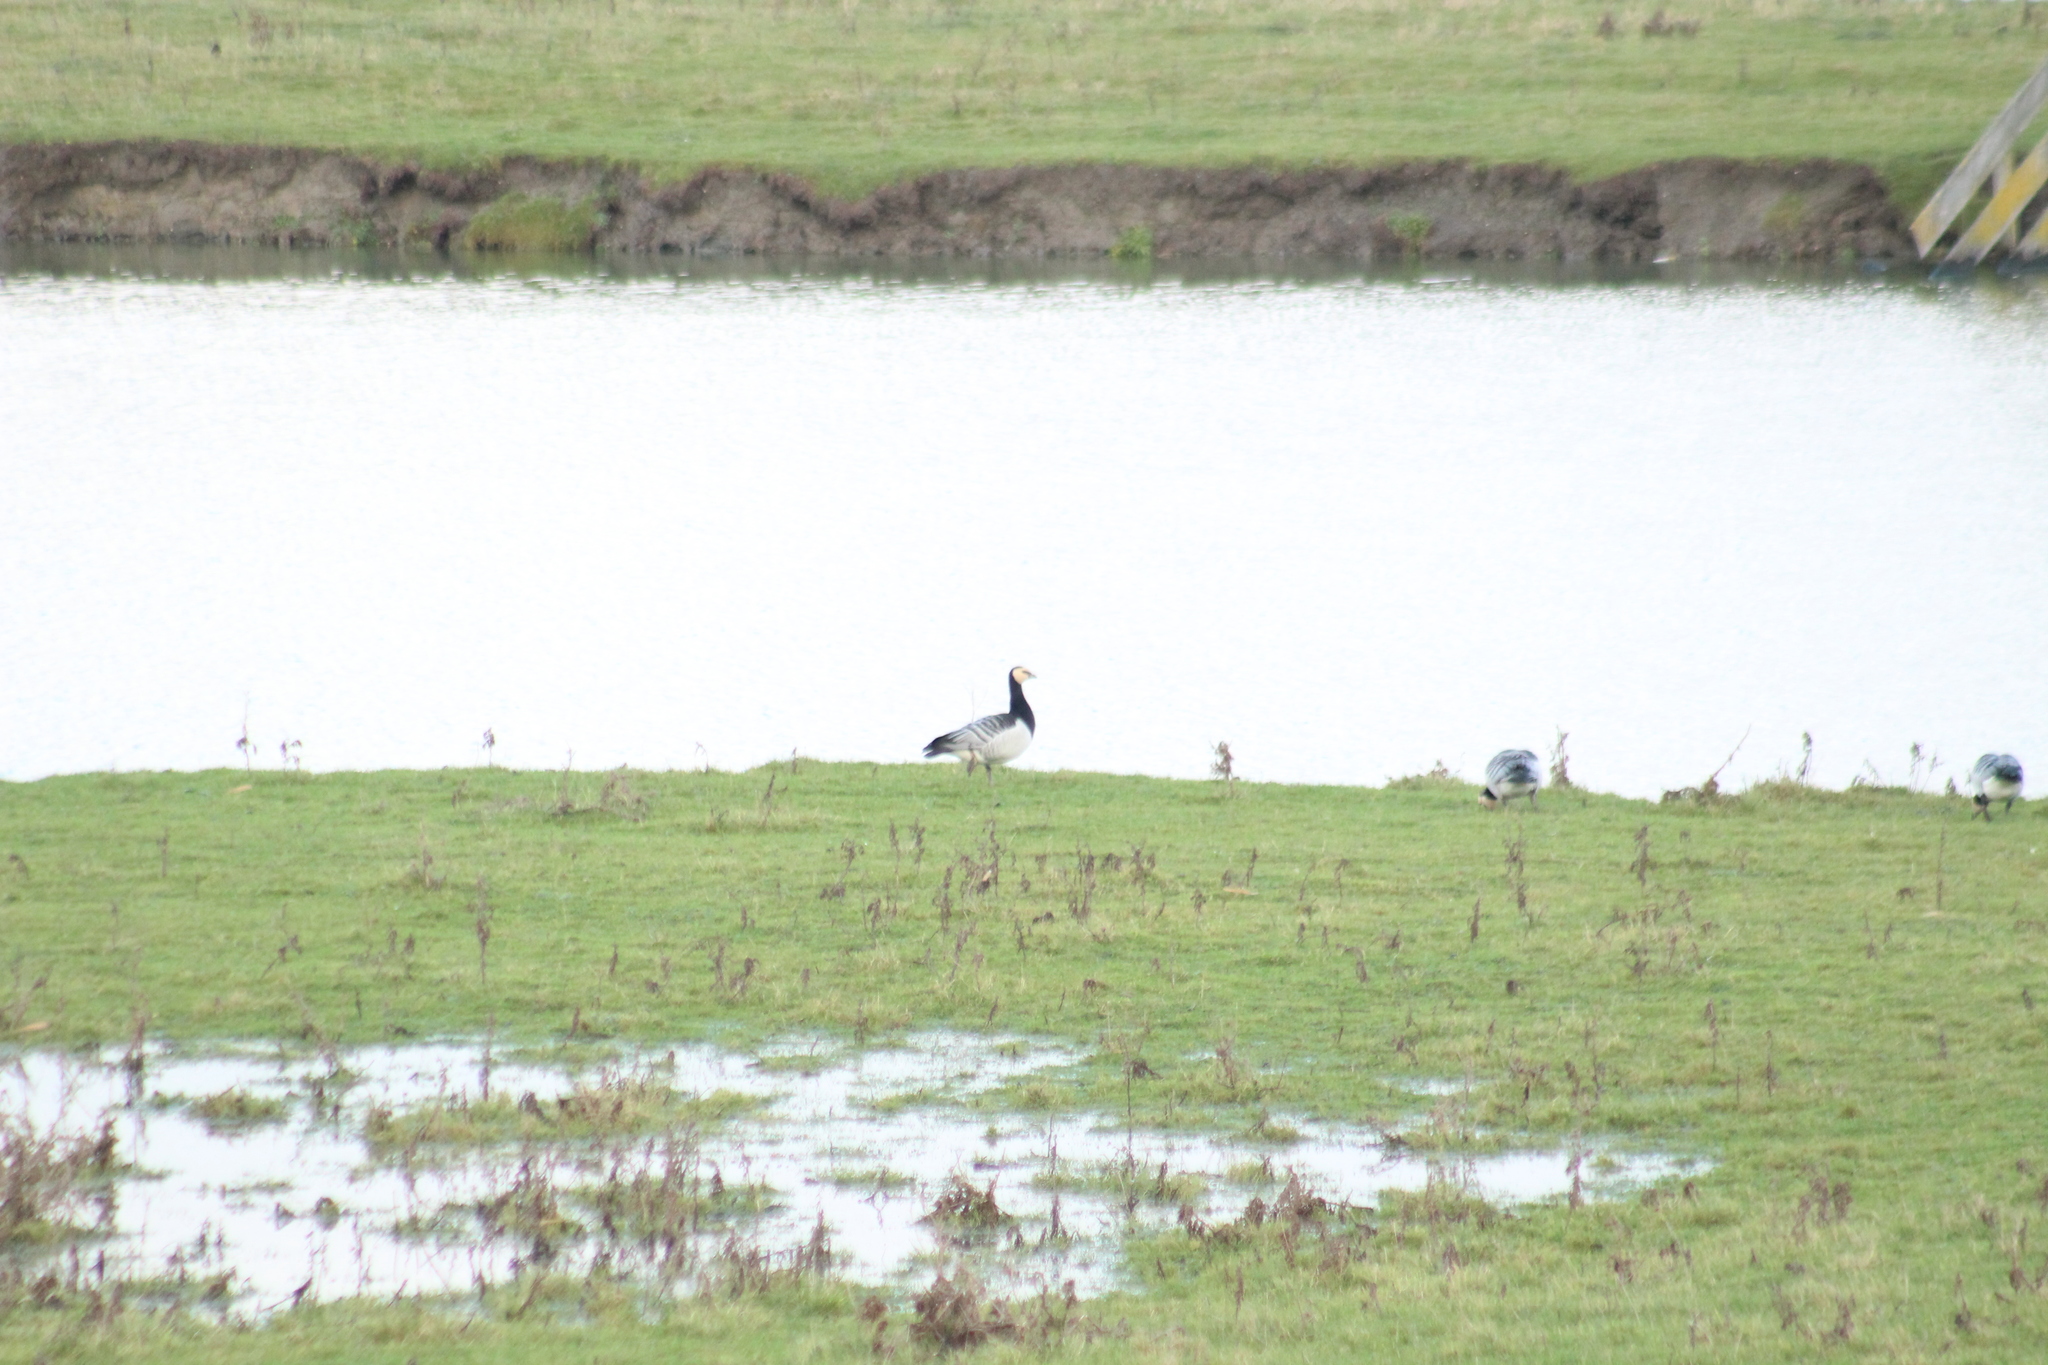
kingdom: Animalia
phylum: Chordata
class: Aves
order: Anseriformes
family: Anatidae
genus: Branta
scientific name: Branta leucopsis
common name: Barnacle goose
